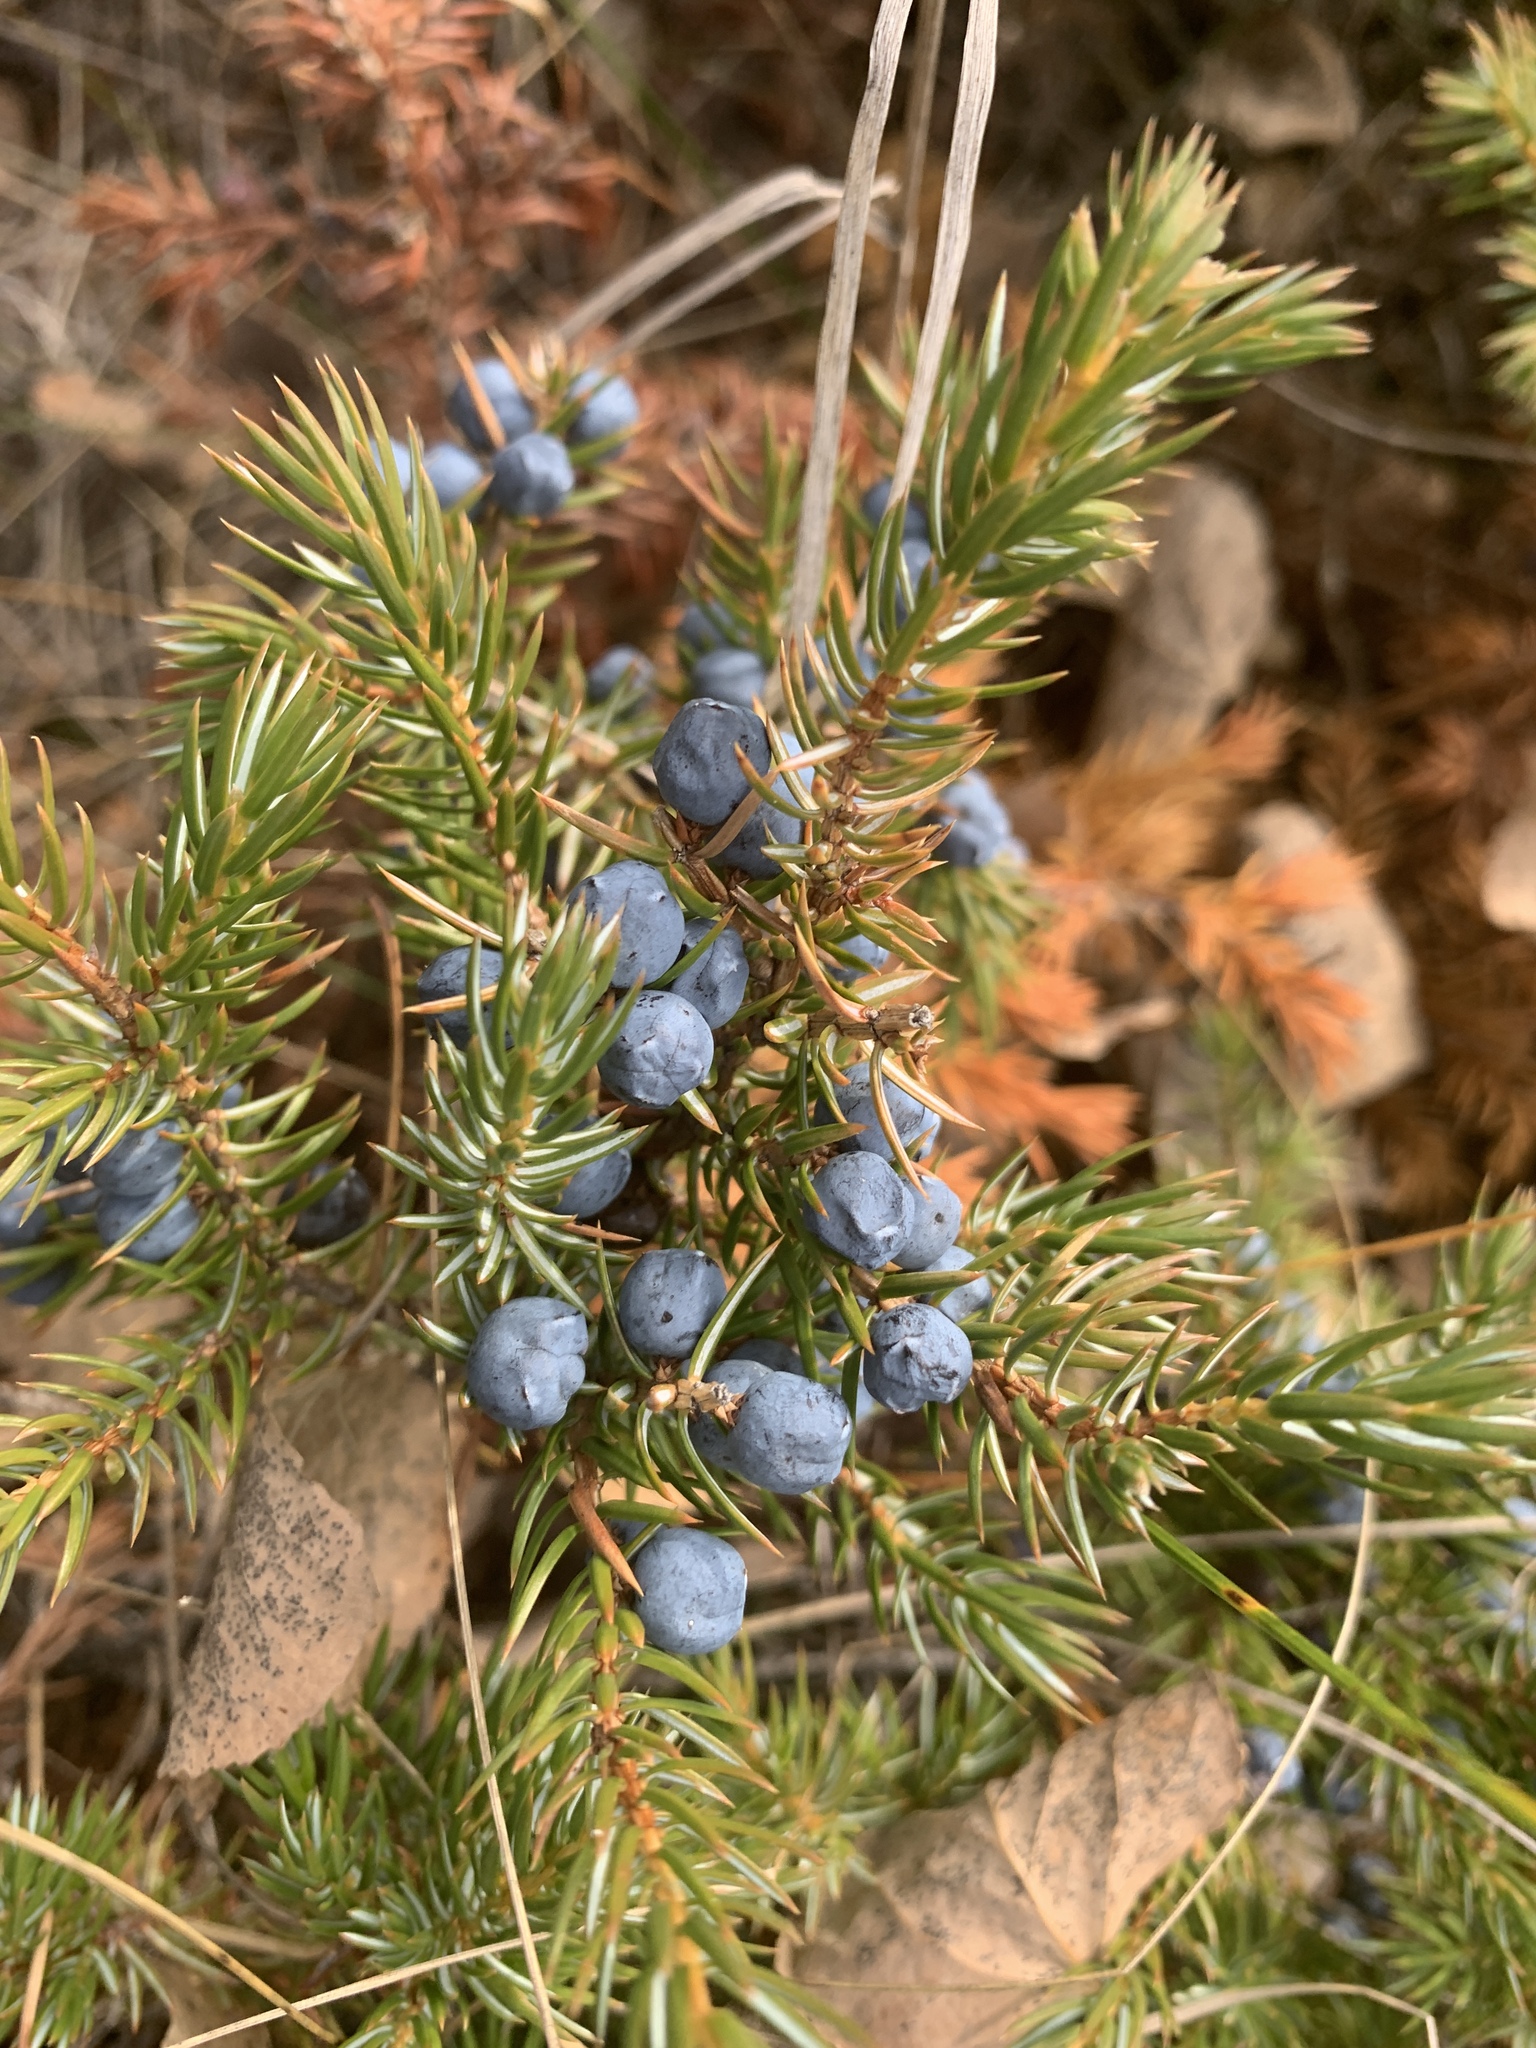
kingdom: Plantae
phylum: Tracheophyta
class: Pinopsida
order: Pinales
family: Cupressaceae
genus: Juniperus
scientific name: Juniperus communis
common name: Common juniper
